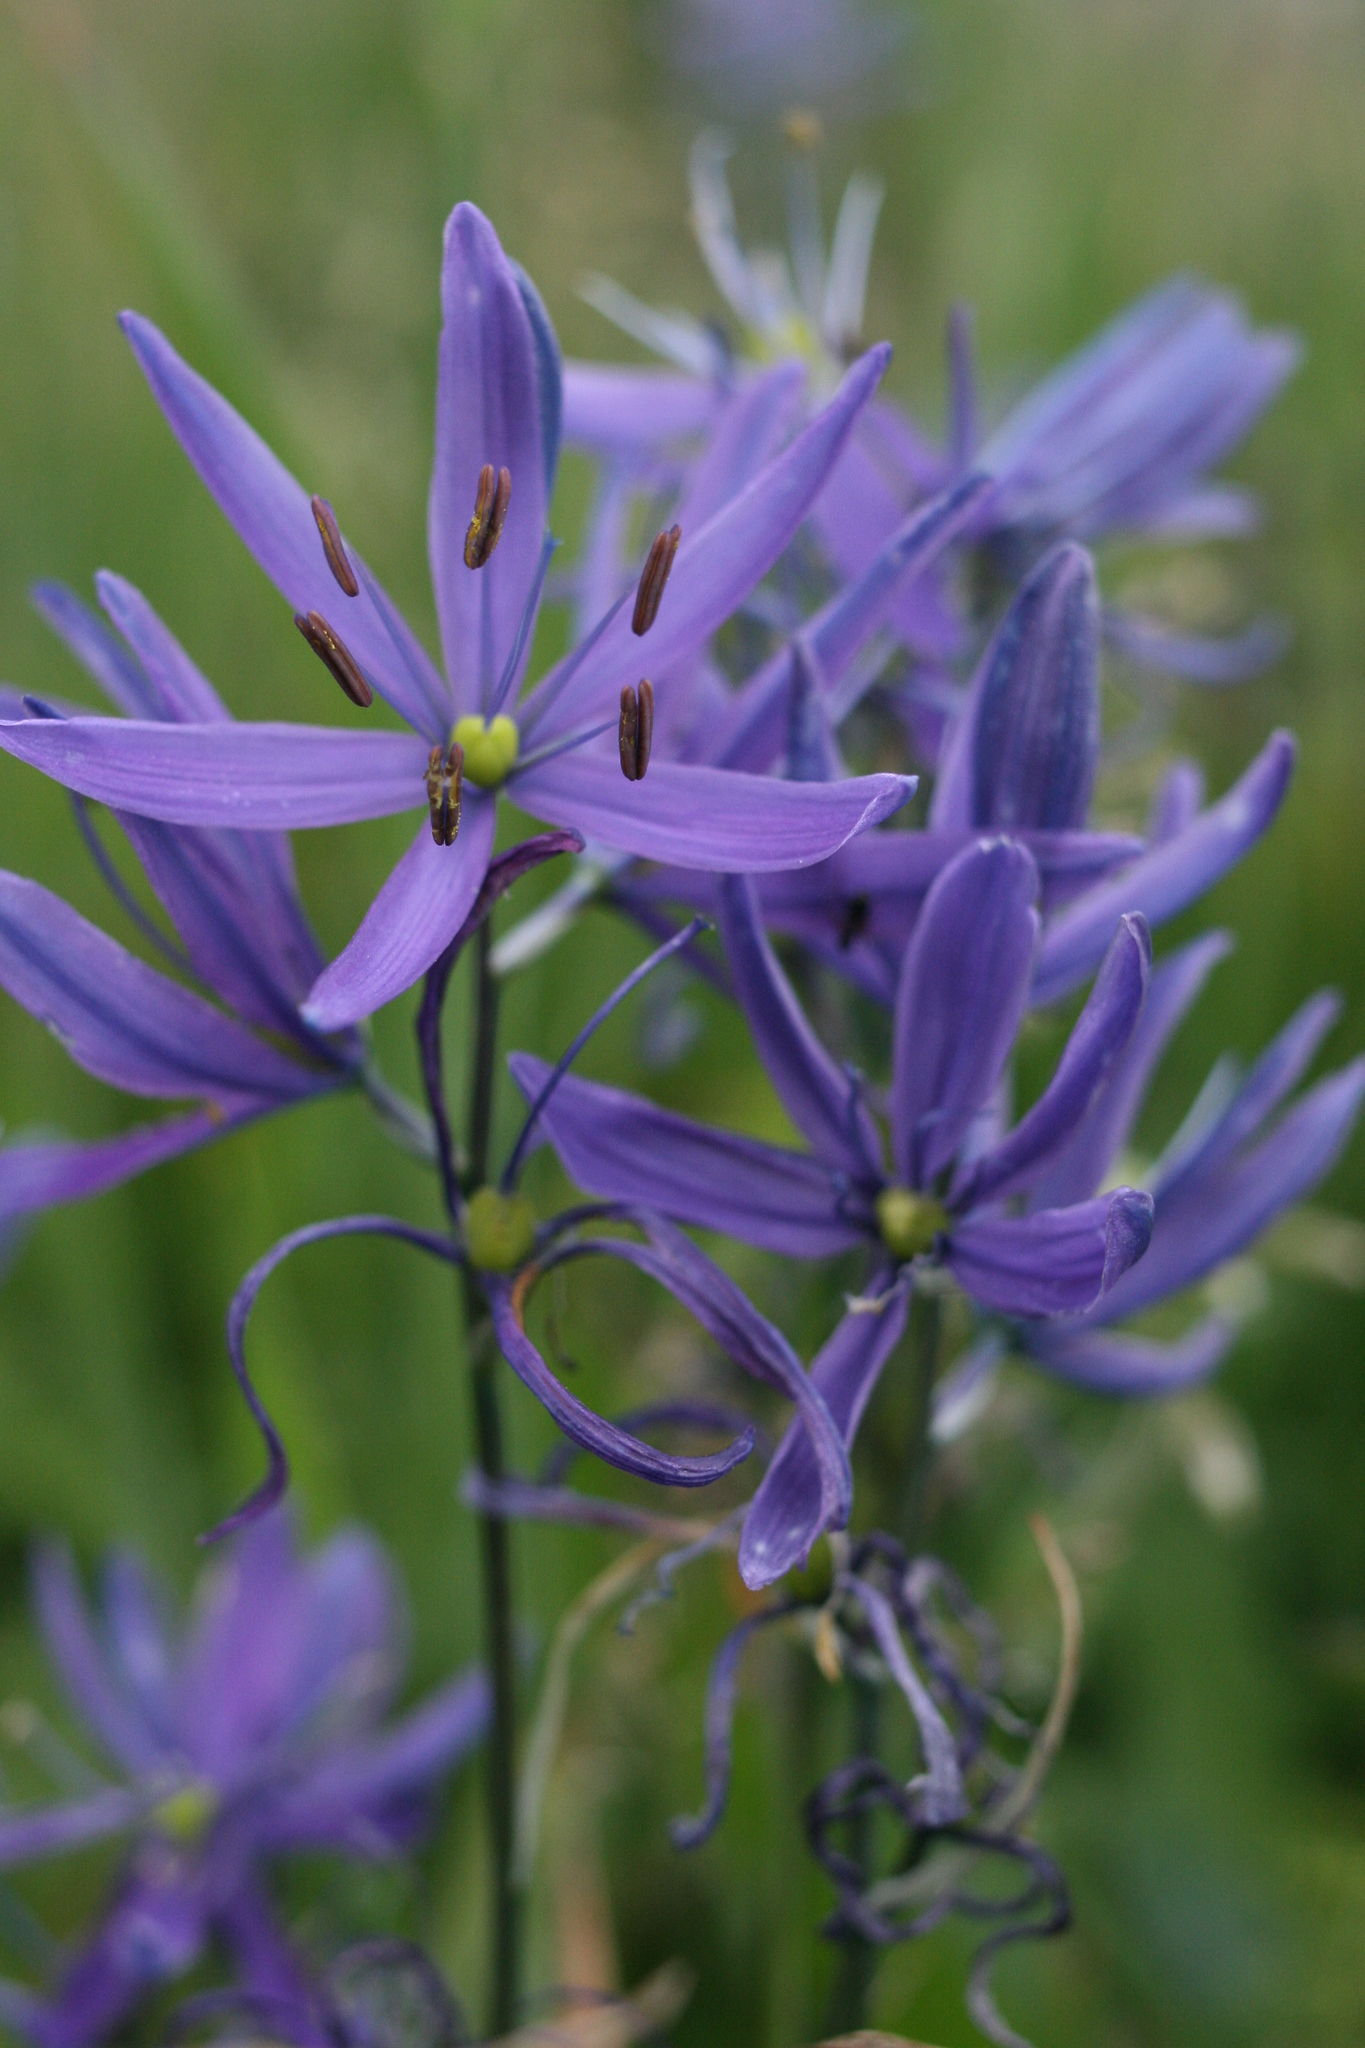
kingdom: Plantae
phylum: Tracheophyta
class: Liliopsida
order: Asparagales
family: Asparagaceae
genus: Camassia
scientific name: Camassia quamash
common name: Common camas
